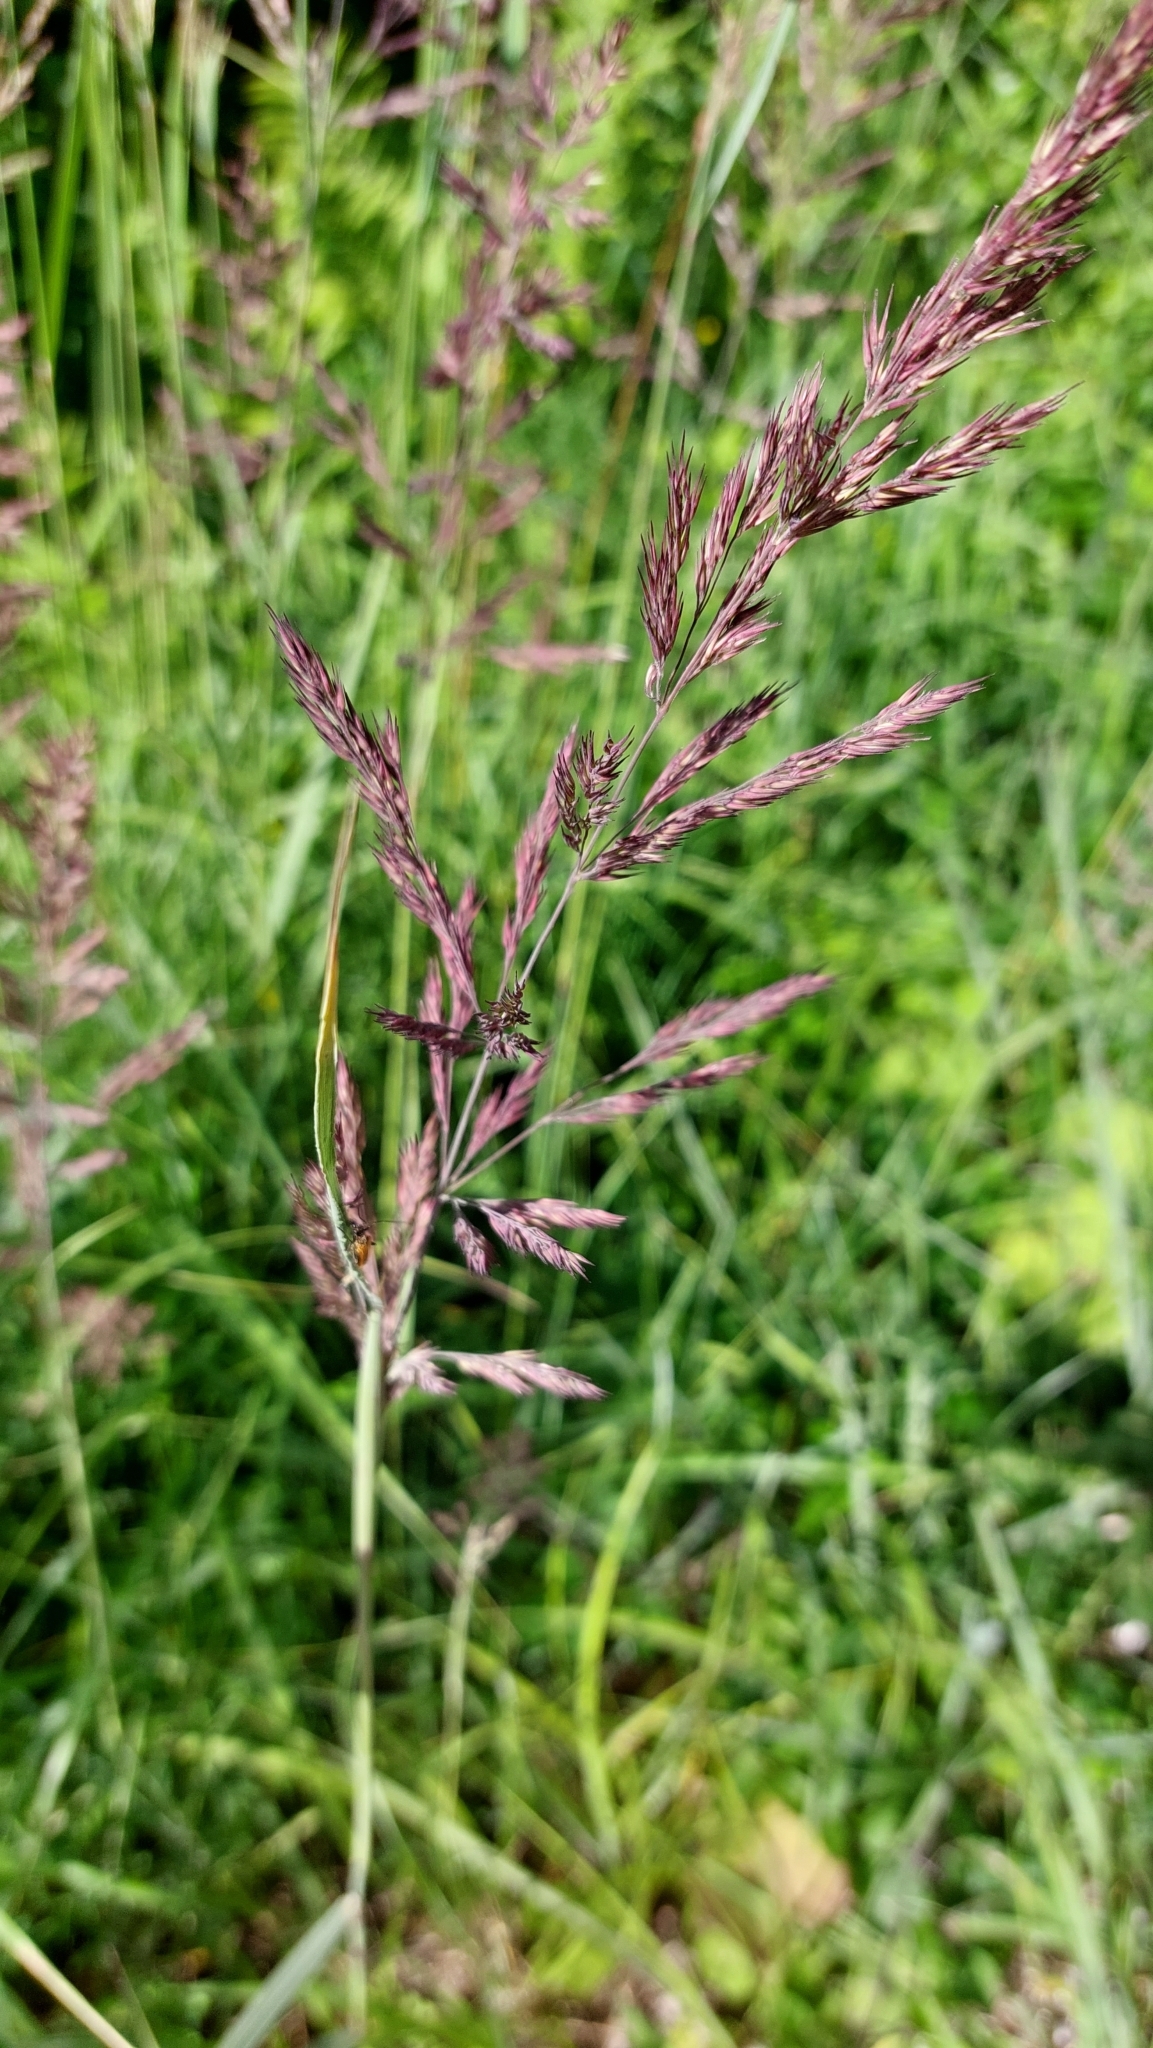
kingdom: Plantae
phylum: Tracheophyta
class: Liliopsida
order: Poales
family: Poaceae
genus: Calamagrostis
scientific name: Calamagrostis epigejos
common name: Wood small-reed
